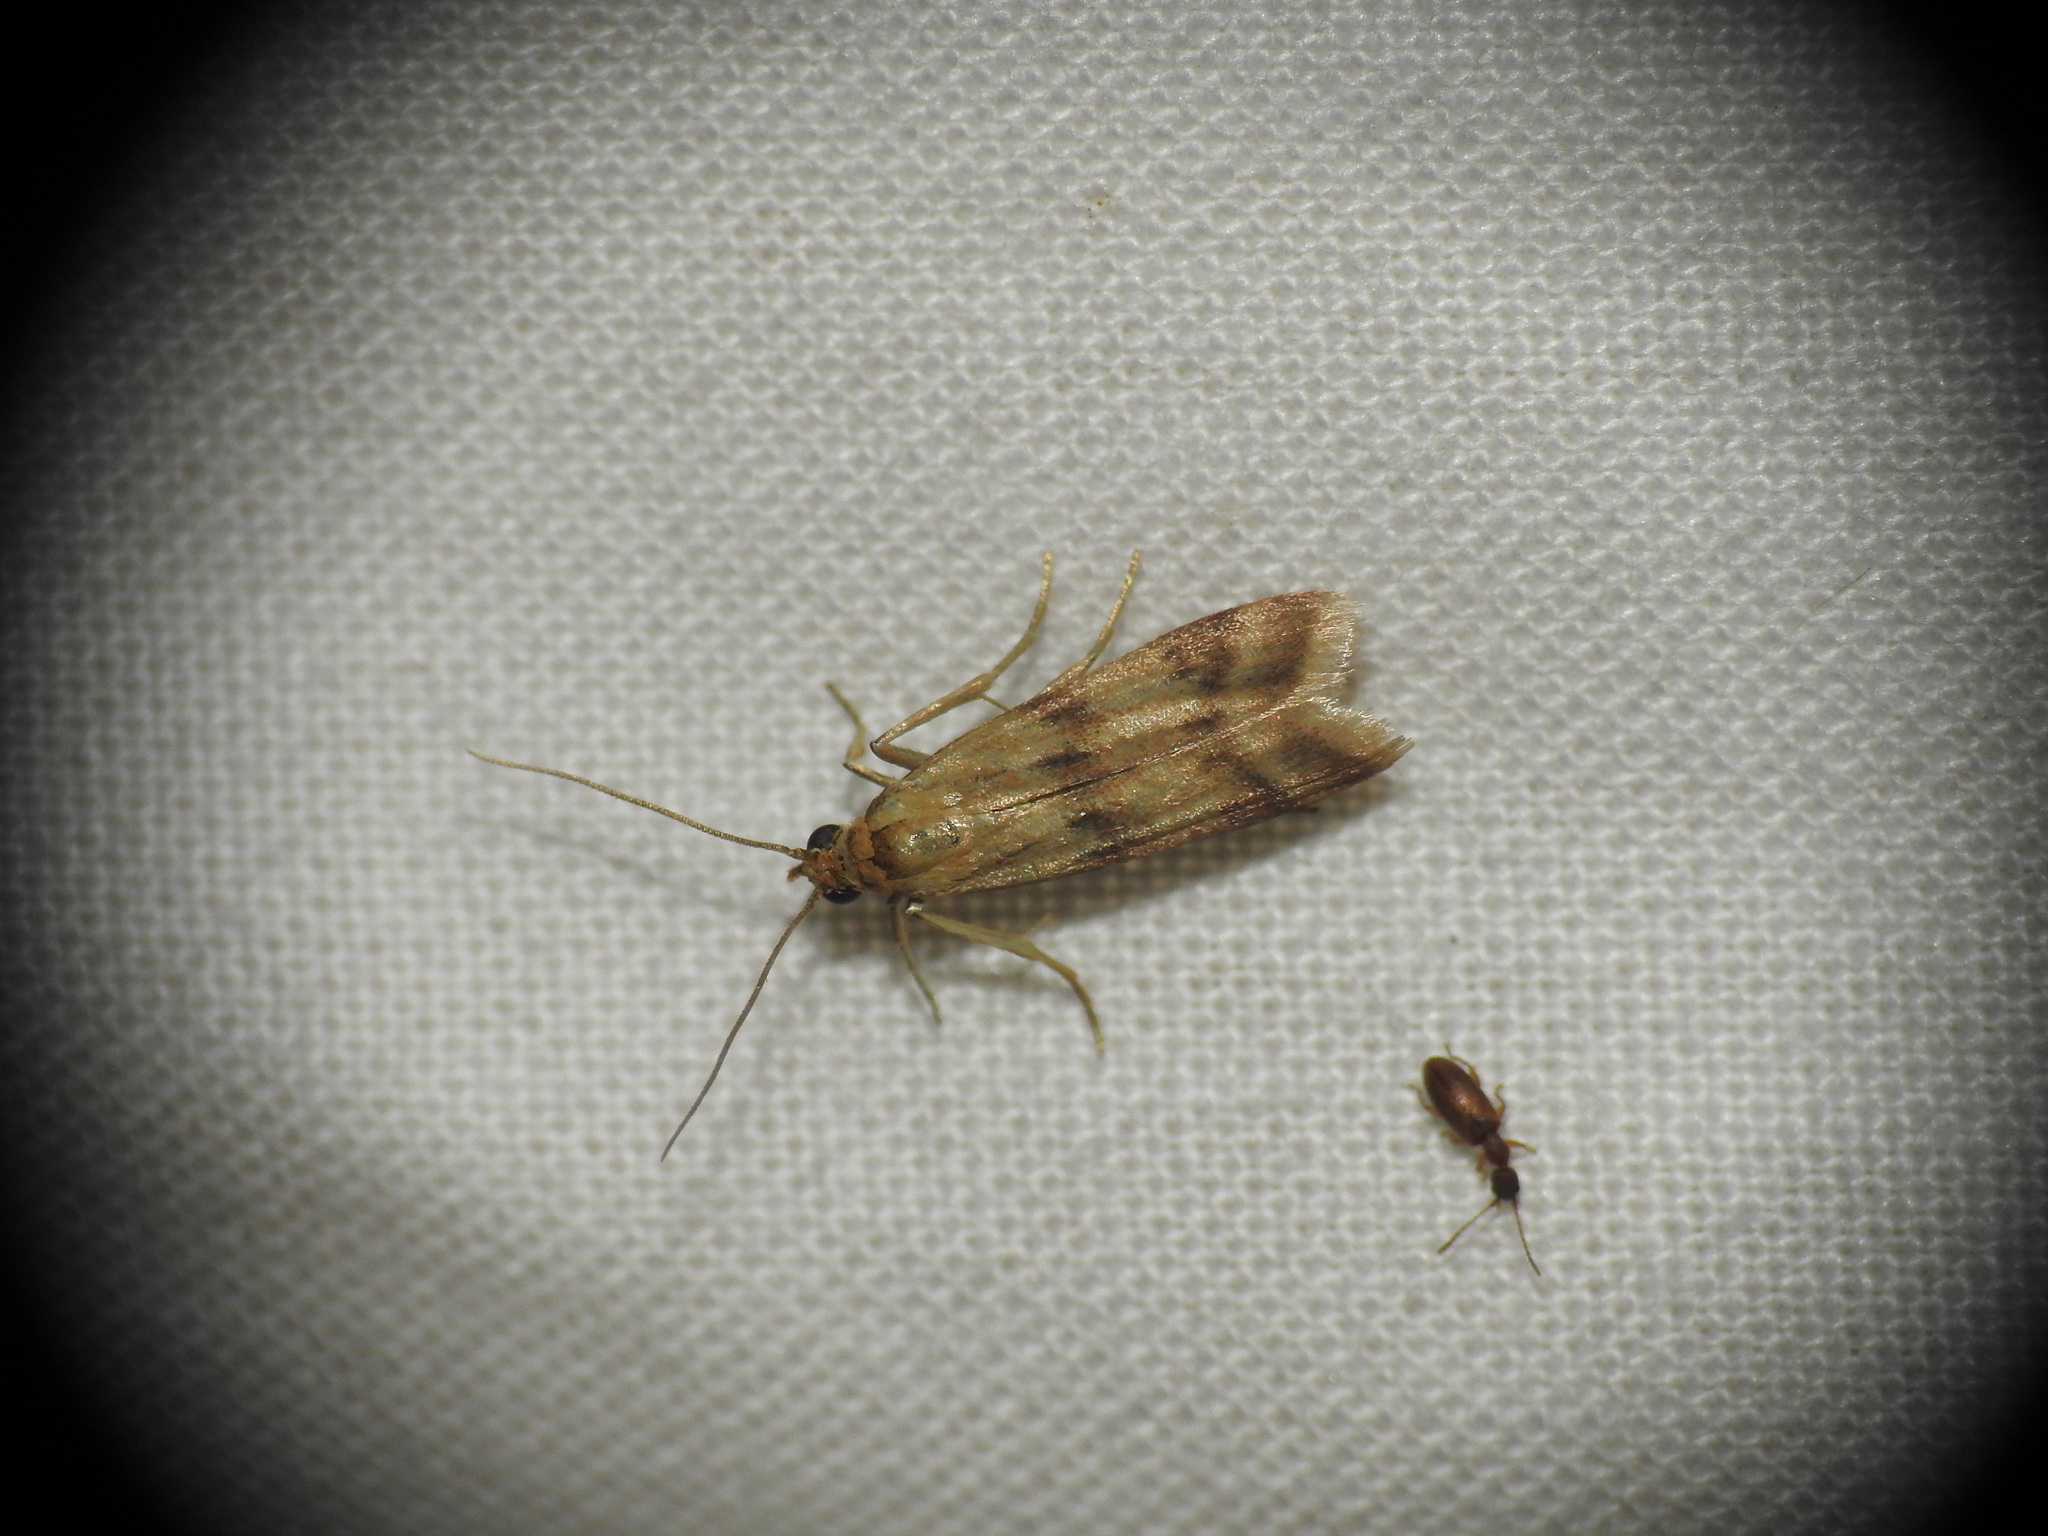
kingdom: Animalia
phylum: Arthropoda
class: Insecta
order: Lepidoptera
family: Pyralidae
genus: Homoeosoma
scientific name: Homoeosoma sinuella
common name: Twin-barred knot-horn
